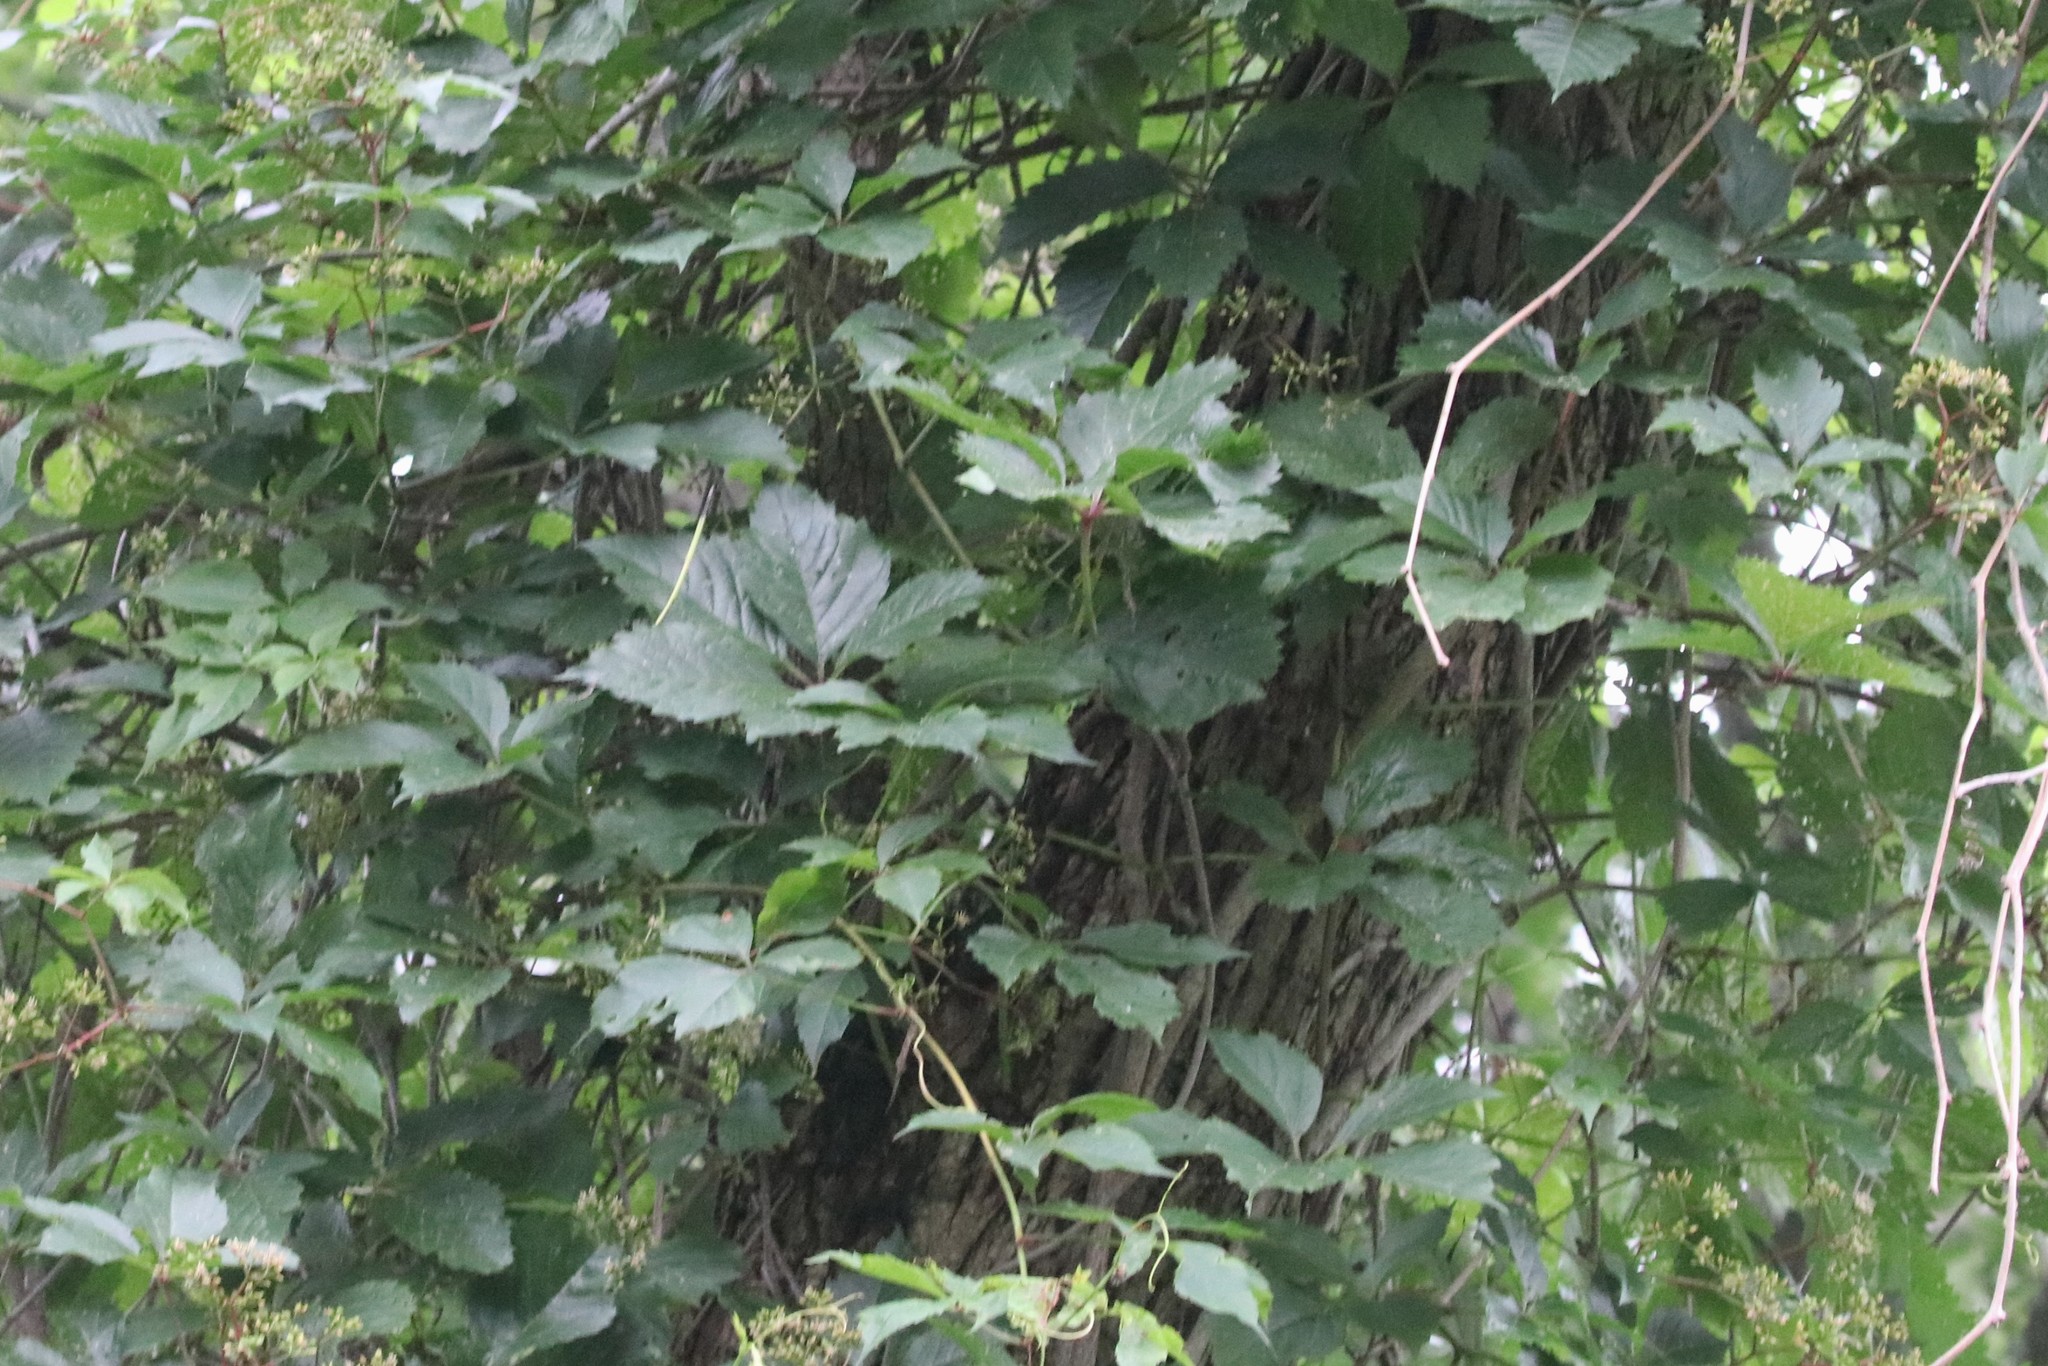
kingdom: Plantae
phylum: Tracheophyta
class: Magnoliopsida
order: Vitales
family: Vitaceae
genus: Parthenocissus
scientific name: Parthenocissus quinquefolia
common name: Virginia-creeper
